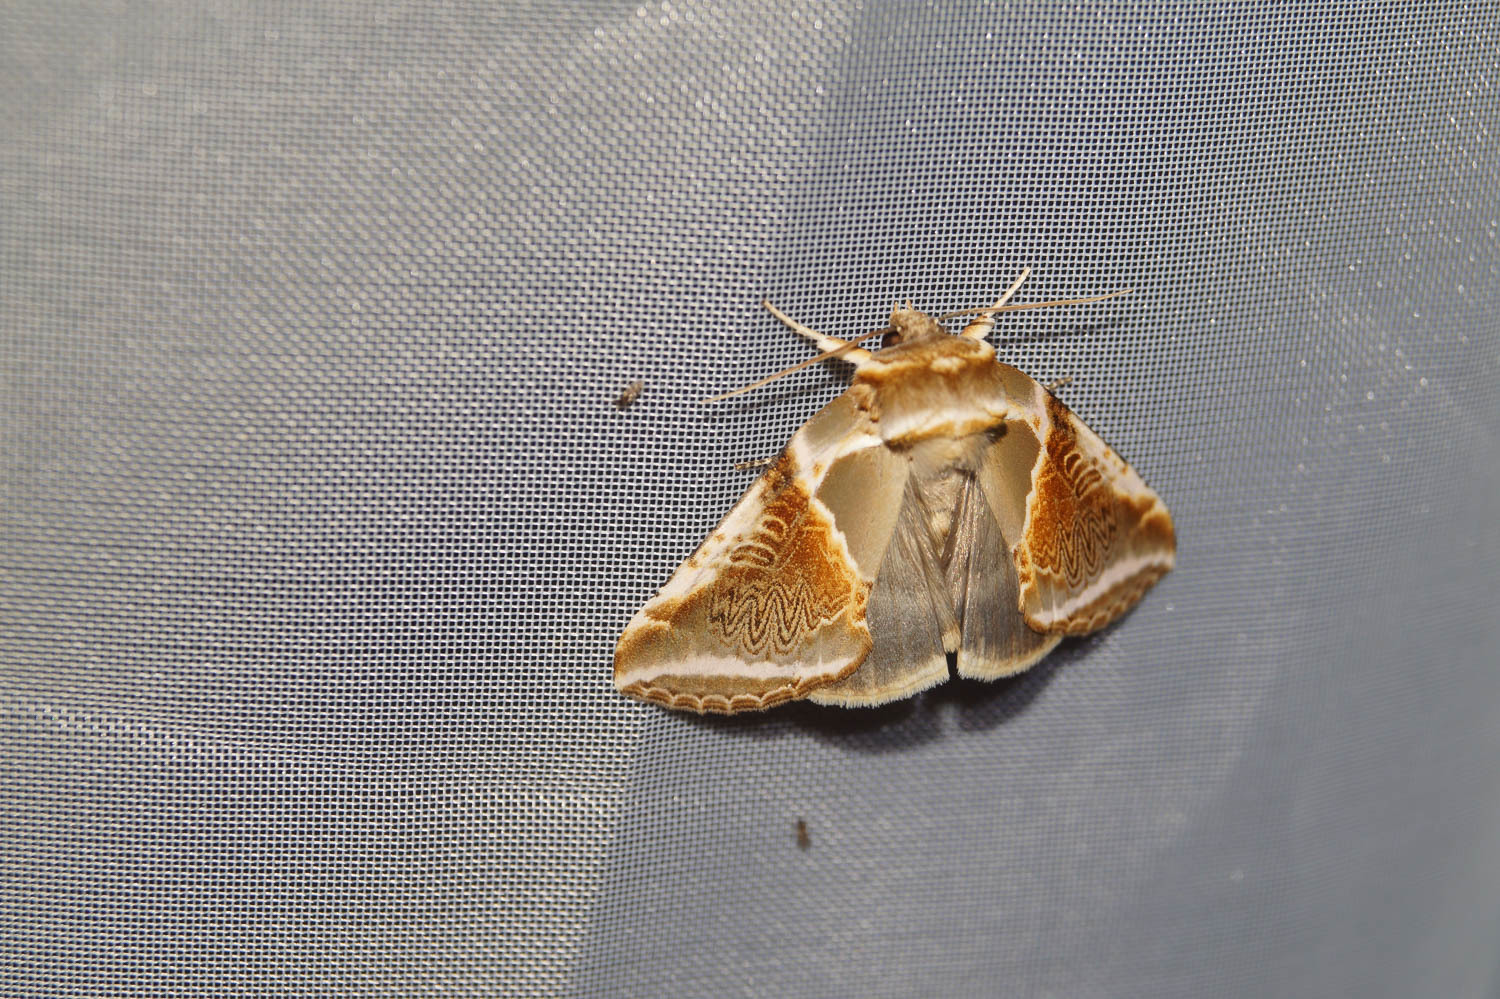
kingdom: Animalia
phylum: Arthropoda
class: Insecta
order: Lepidoptera
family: Drepanidae
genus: Habrosyne
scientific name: Habrosyne pyritoides
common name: Buff arches
